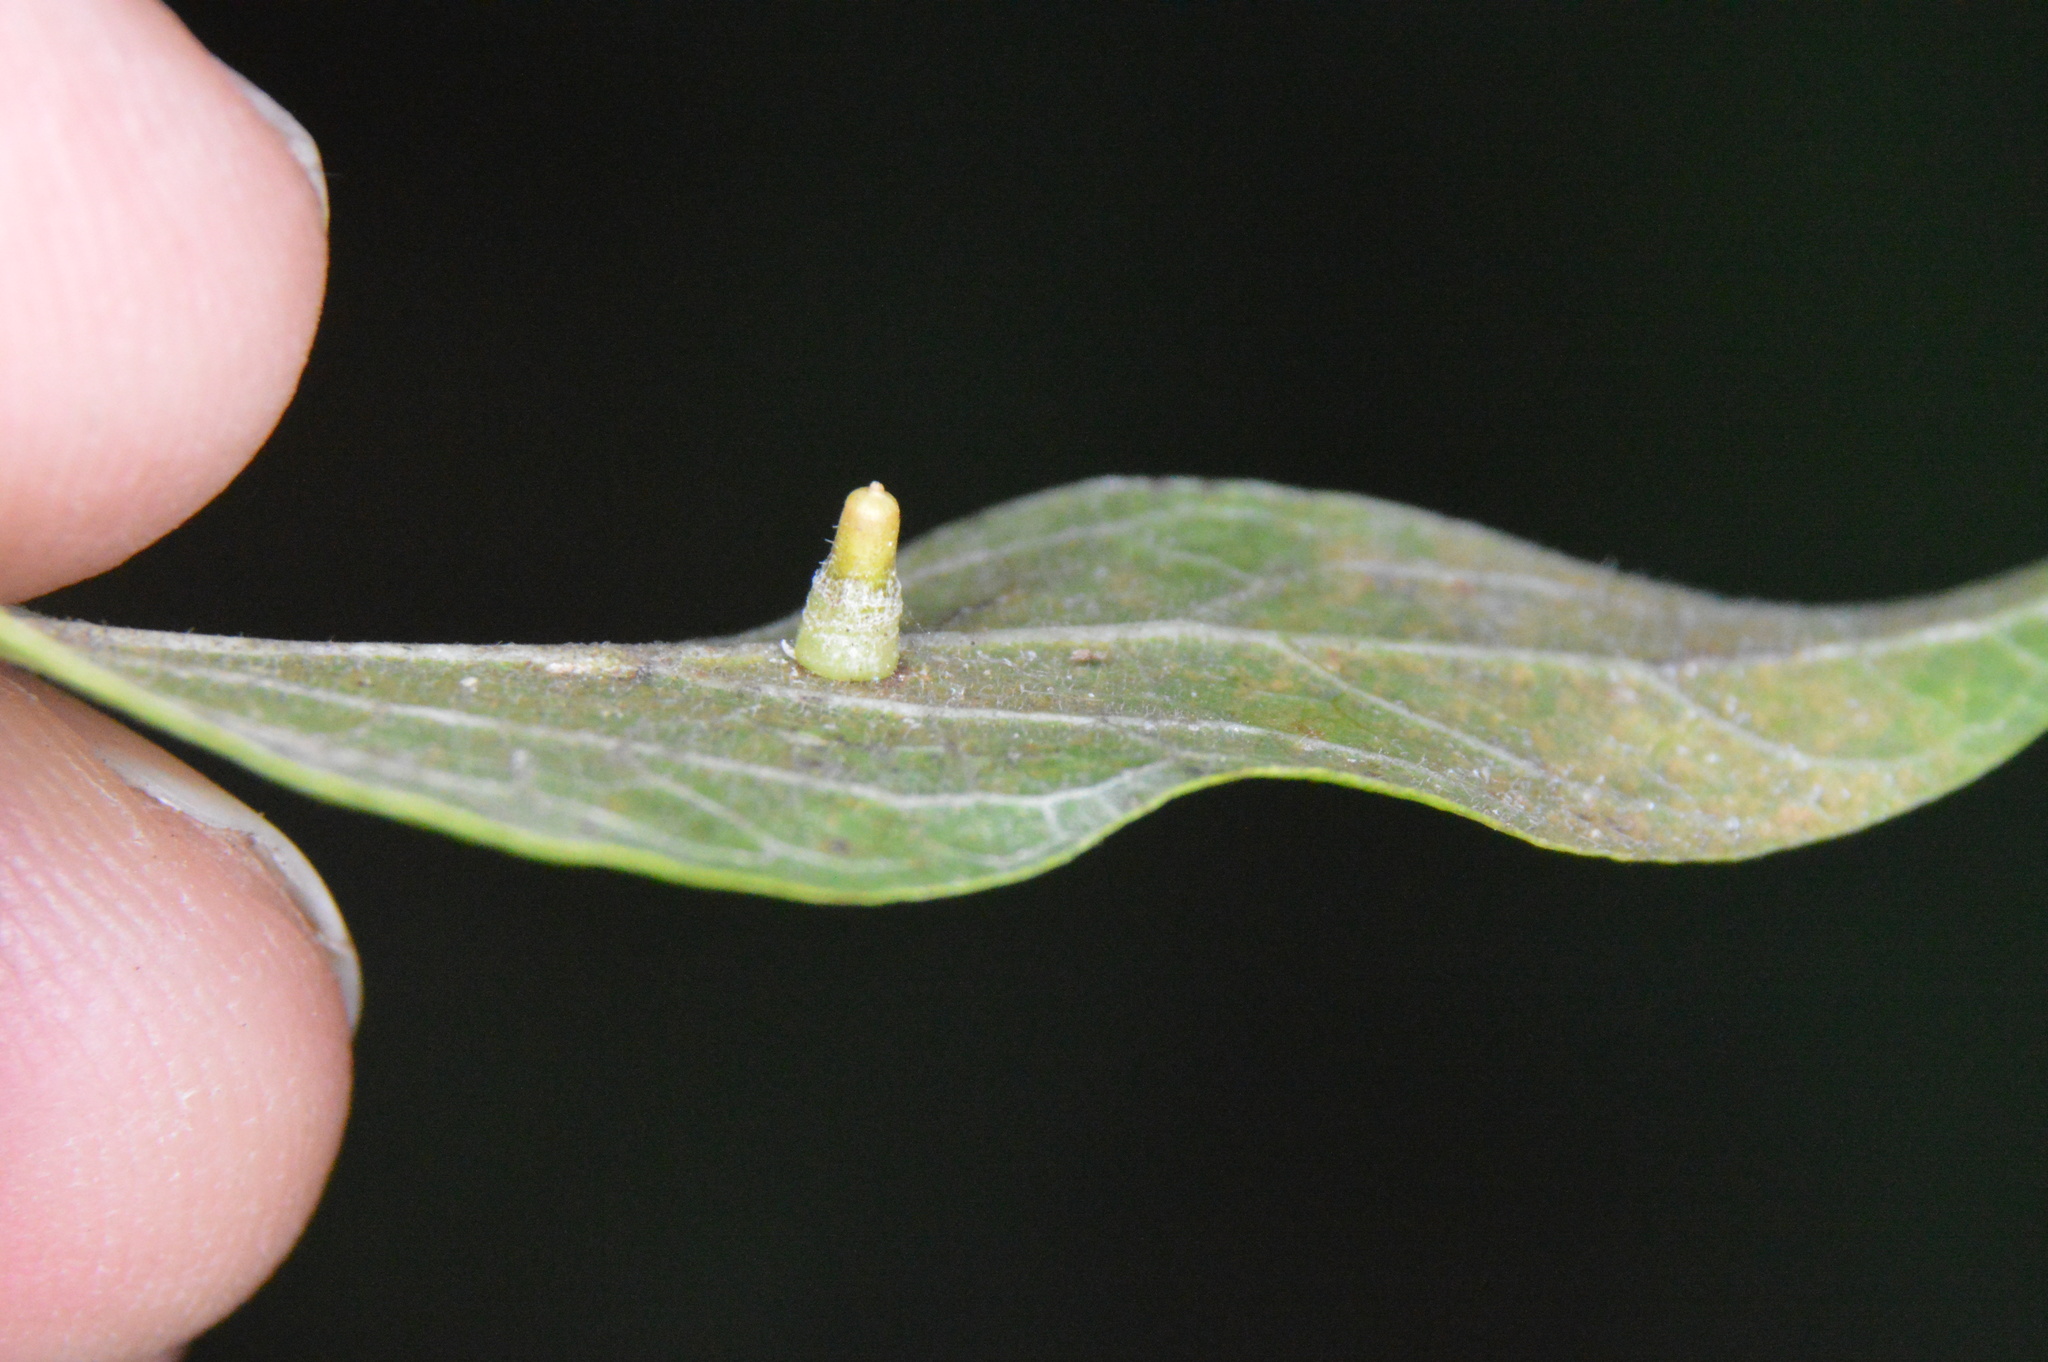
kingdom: Animalia
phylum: Arthropoda
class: Insecta
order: Diptera
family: Cecidomyiidae
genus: Celticecis
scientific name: Celticecis aciculata
